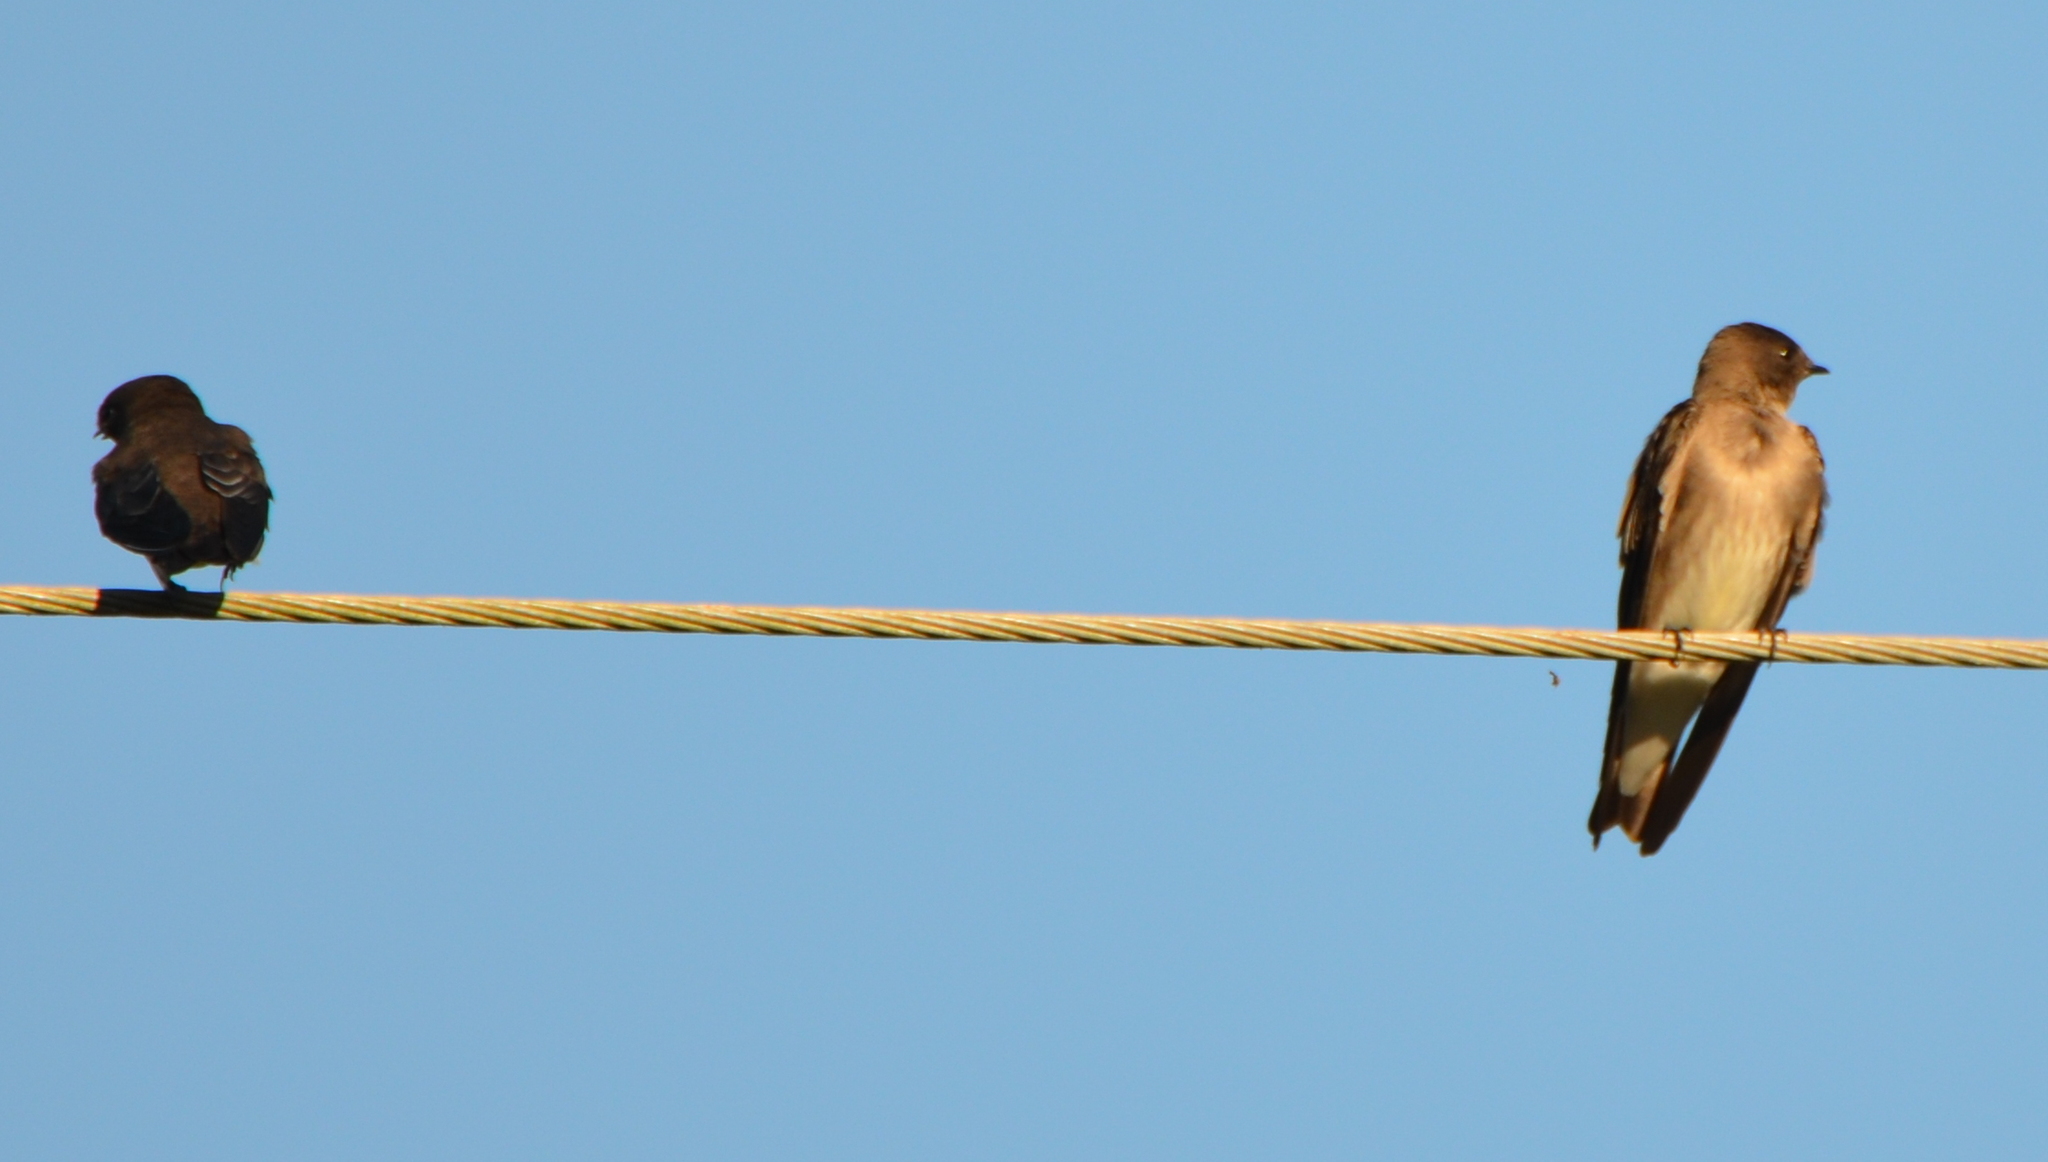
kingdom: Animalia
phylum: Chordata
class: Aves
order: Passeriformes
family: Hirundinidae
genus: Stelgidopteryx
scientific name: Stelgidopteryx serripennis
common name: Northern rough-winged swallow
